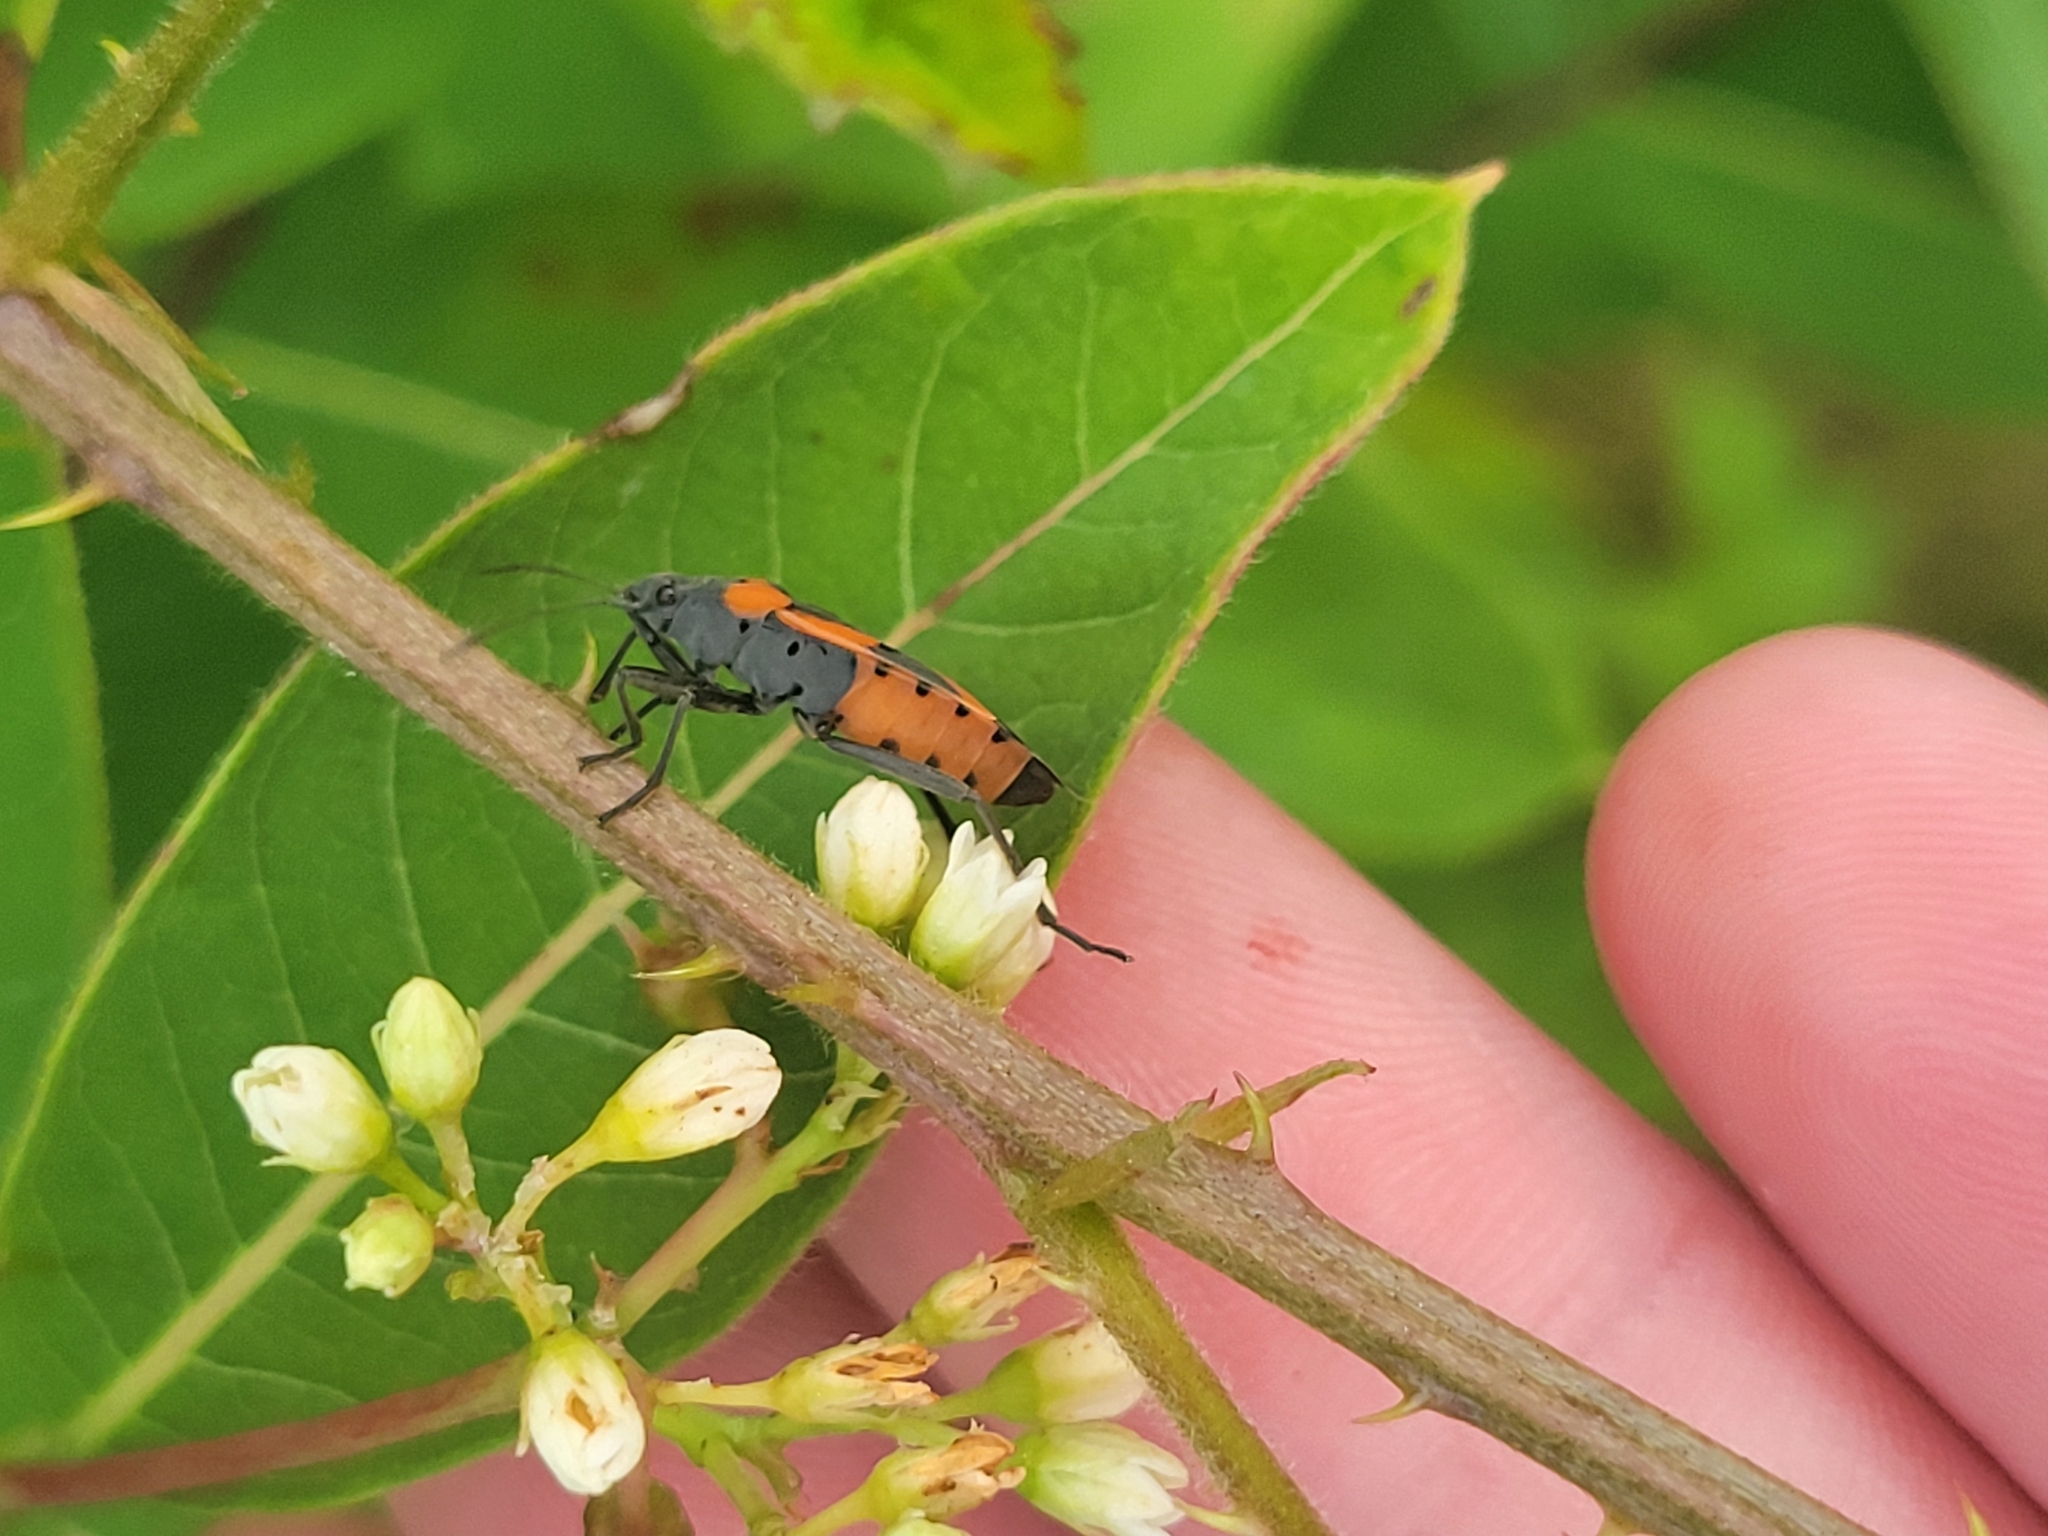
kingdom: Animalia
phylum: Arthropoda
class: Insecta
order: Hemiptera
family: Lygaeidae
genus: Lygaeus
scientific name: Lygaeus kalmii
